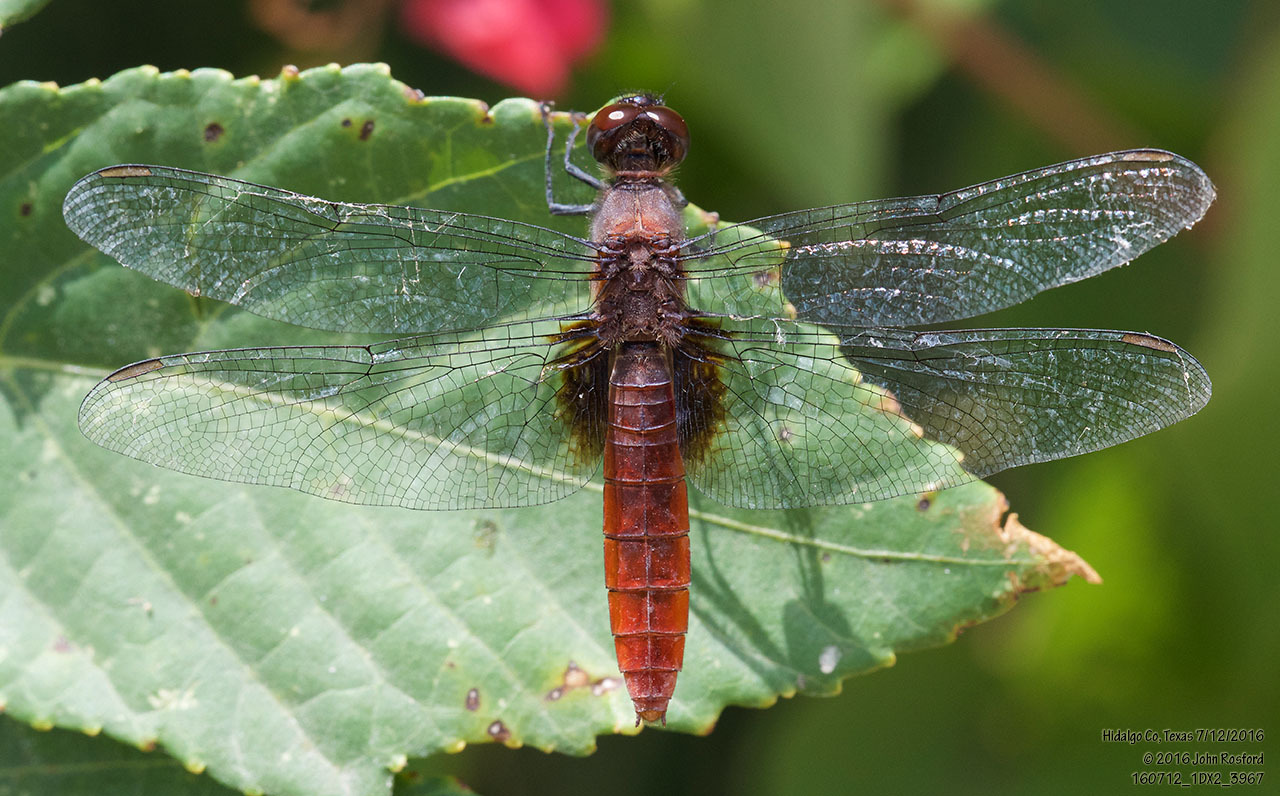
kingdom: Animalia
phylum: Arthropoda
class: Insecta
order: Odonata
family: Libellulidae
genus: Planiplax
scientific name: Planiplax sanguiniventris
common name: Mexican scarlet-tail
